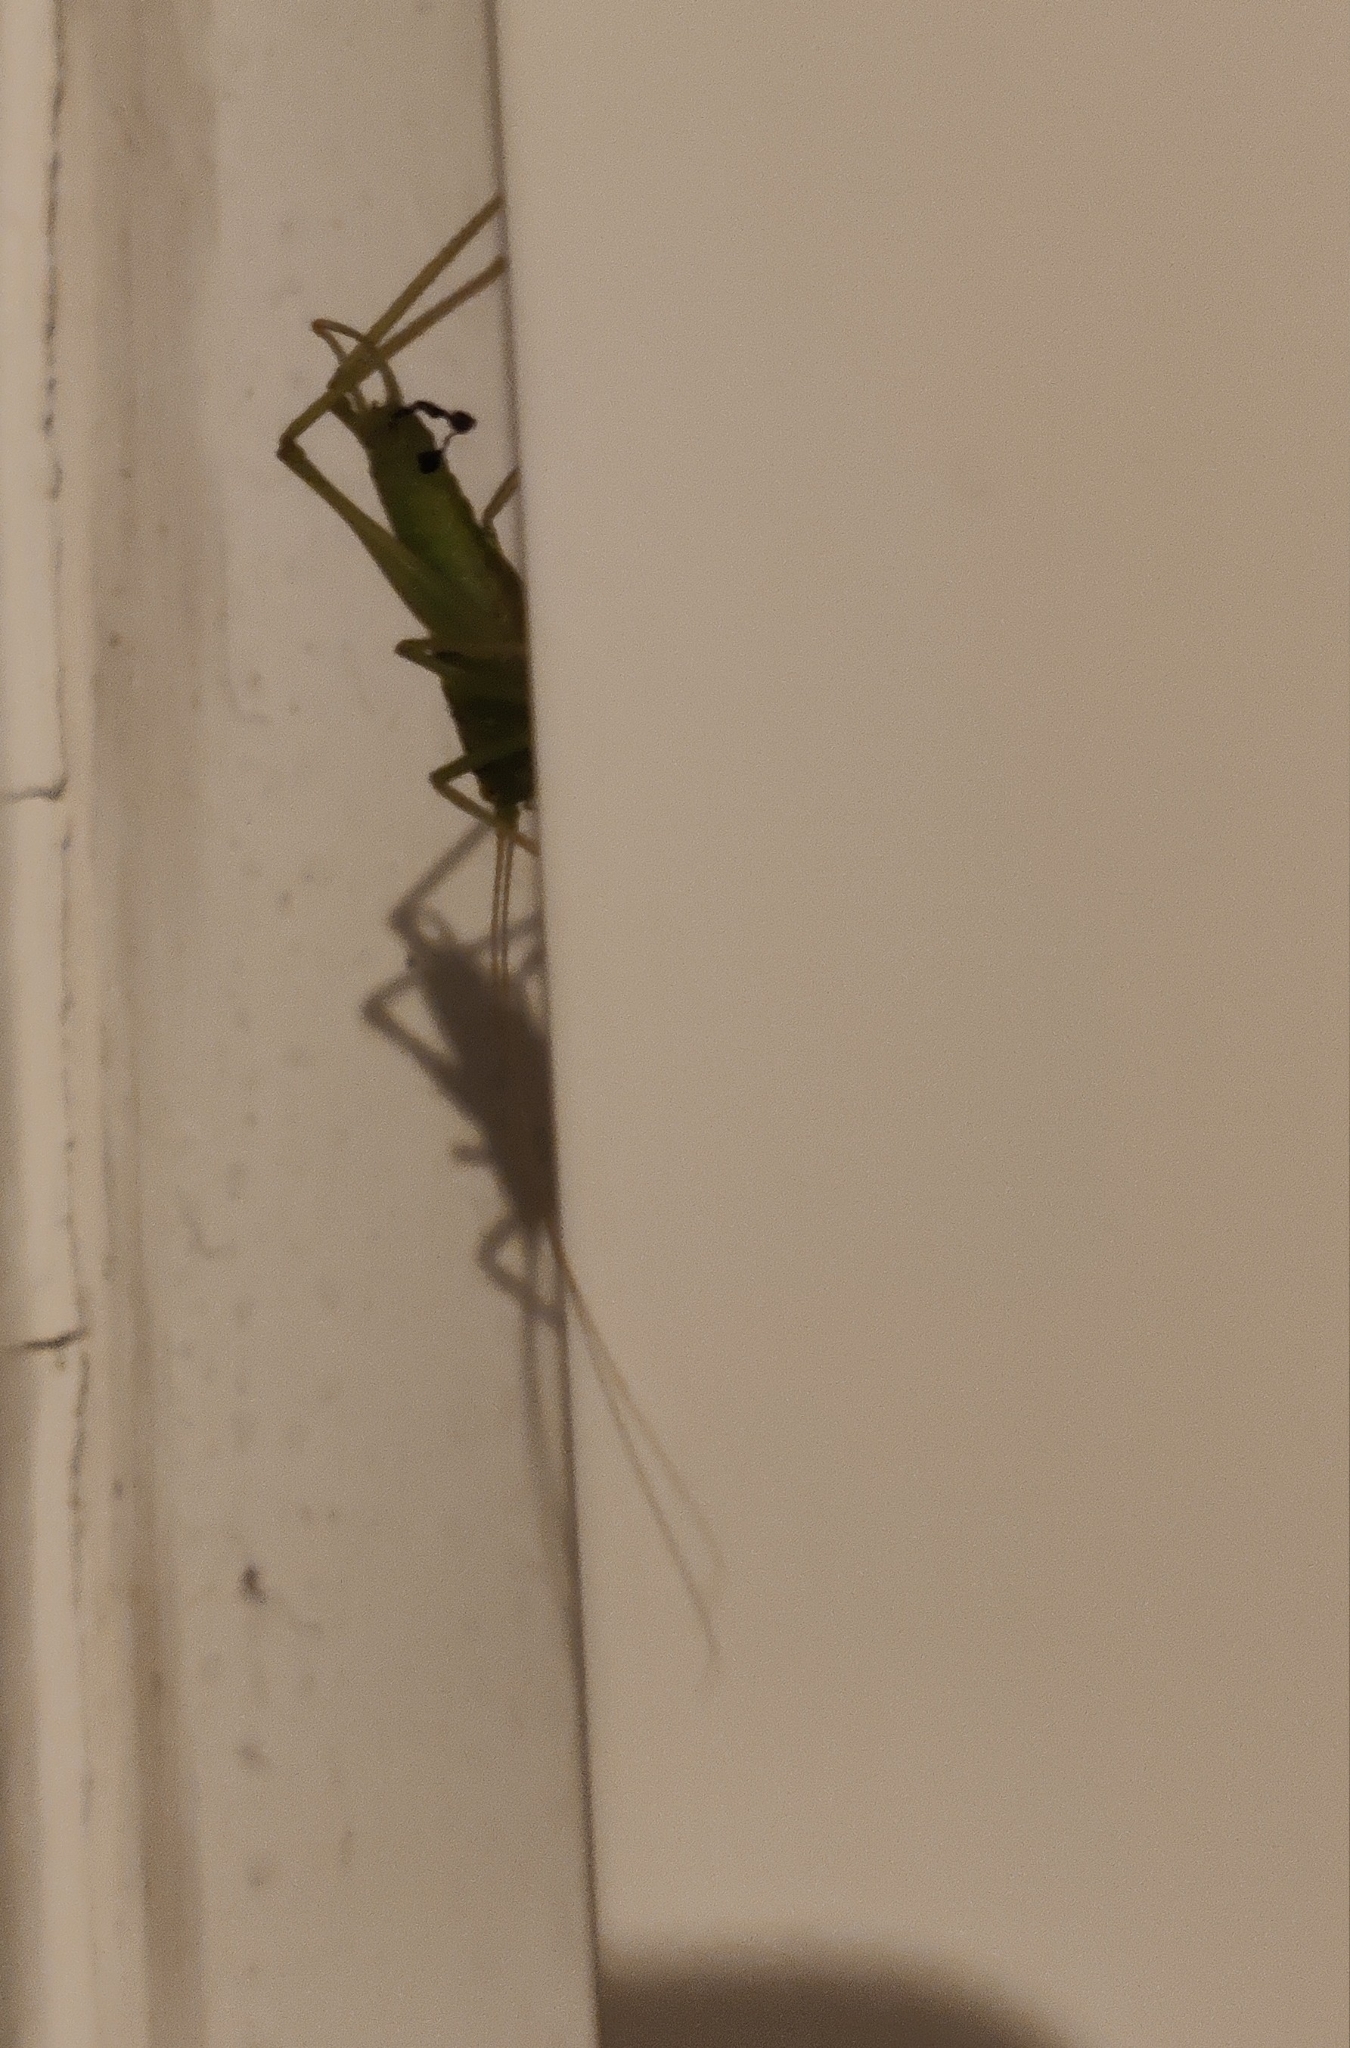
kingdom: Animalia
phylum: Arthropoda
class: Insecta
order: Orthoptera
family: Tettigoniidae
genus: Meconema
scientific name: Meconema meridionale
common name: Southern oak bush-cricket
